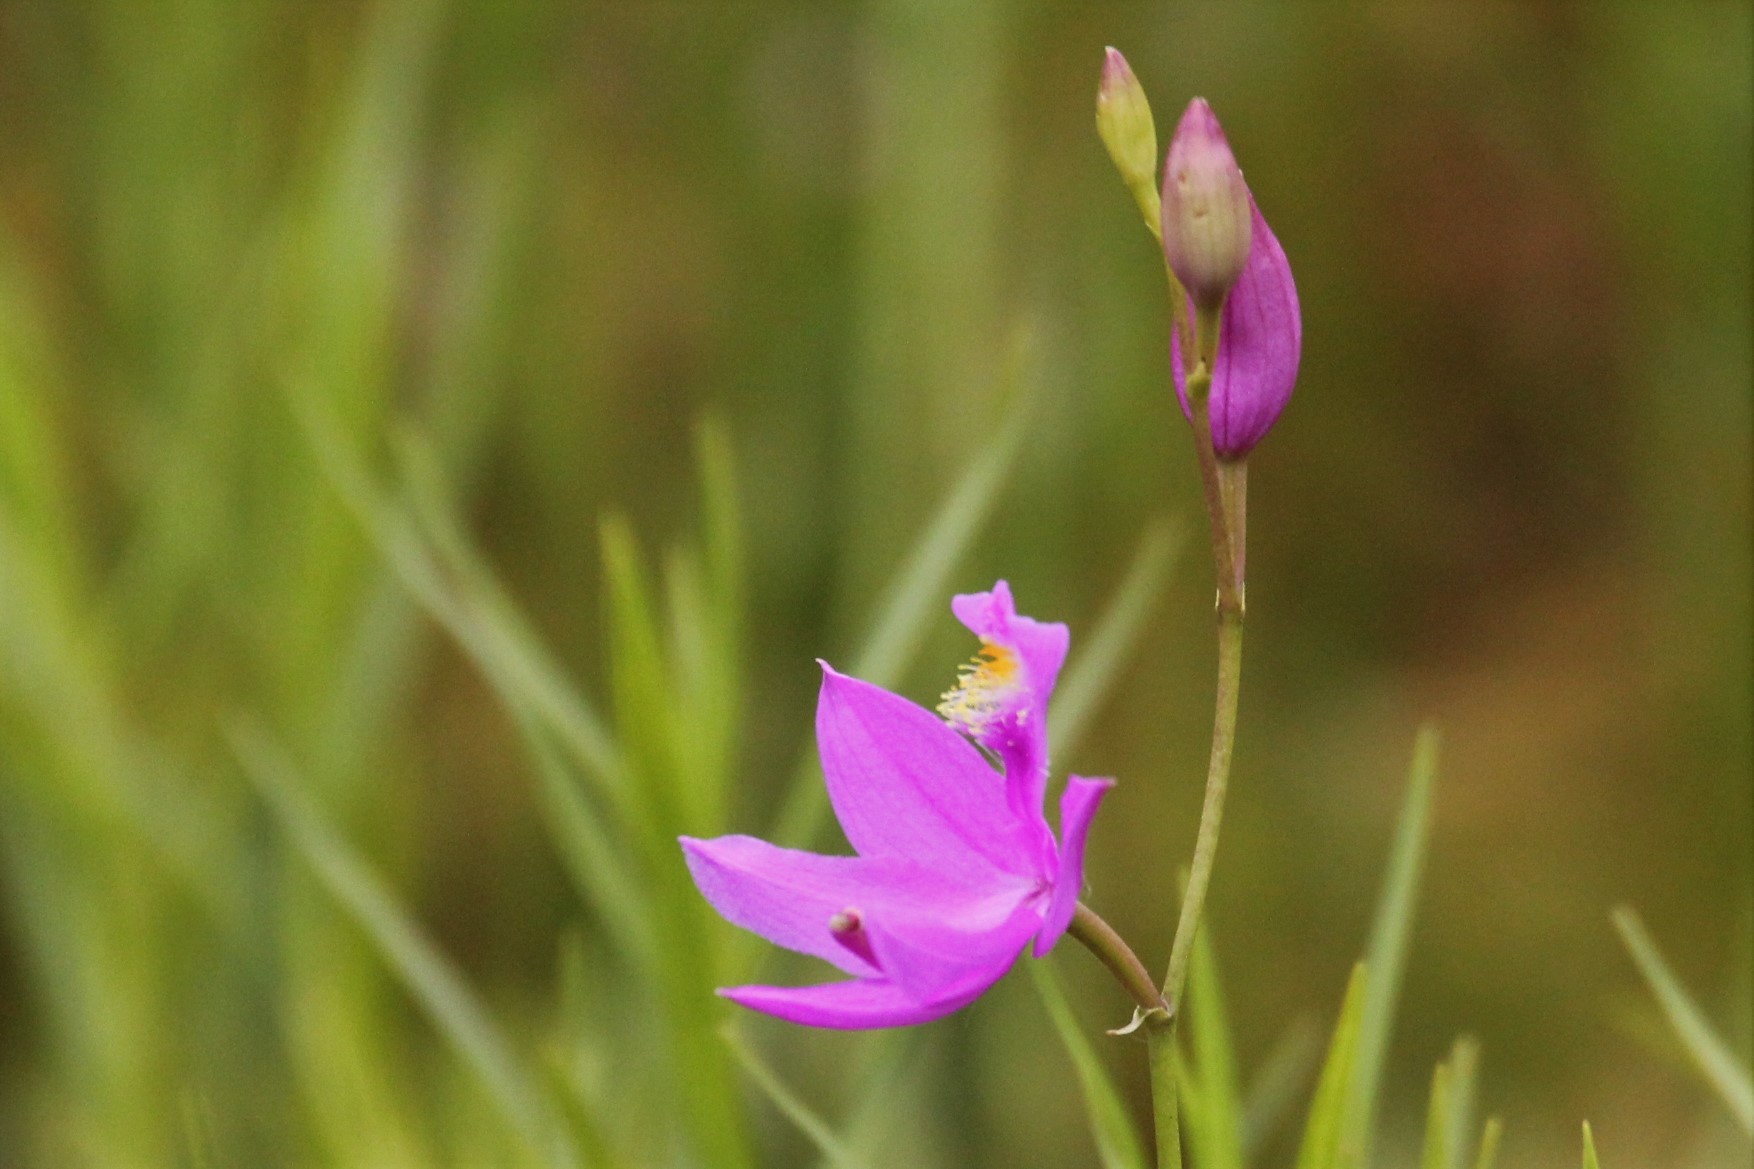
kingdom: Plantae
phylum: Tracheophyta
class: Liliopsida
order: Asparagales
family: Orchidaceae
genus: Calopogon
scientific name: Calopogon tuberosus
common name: Grass-pink
